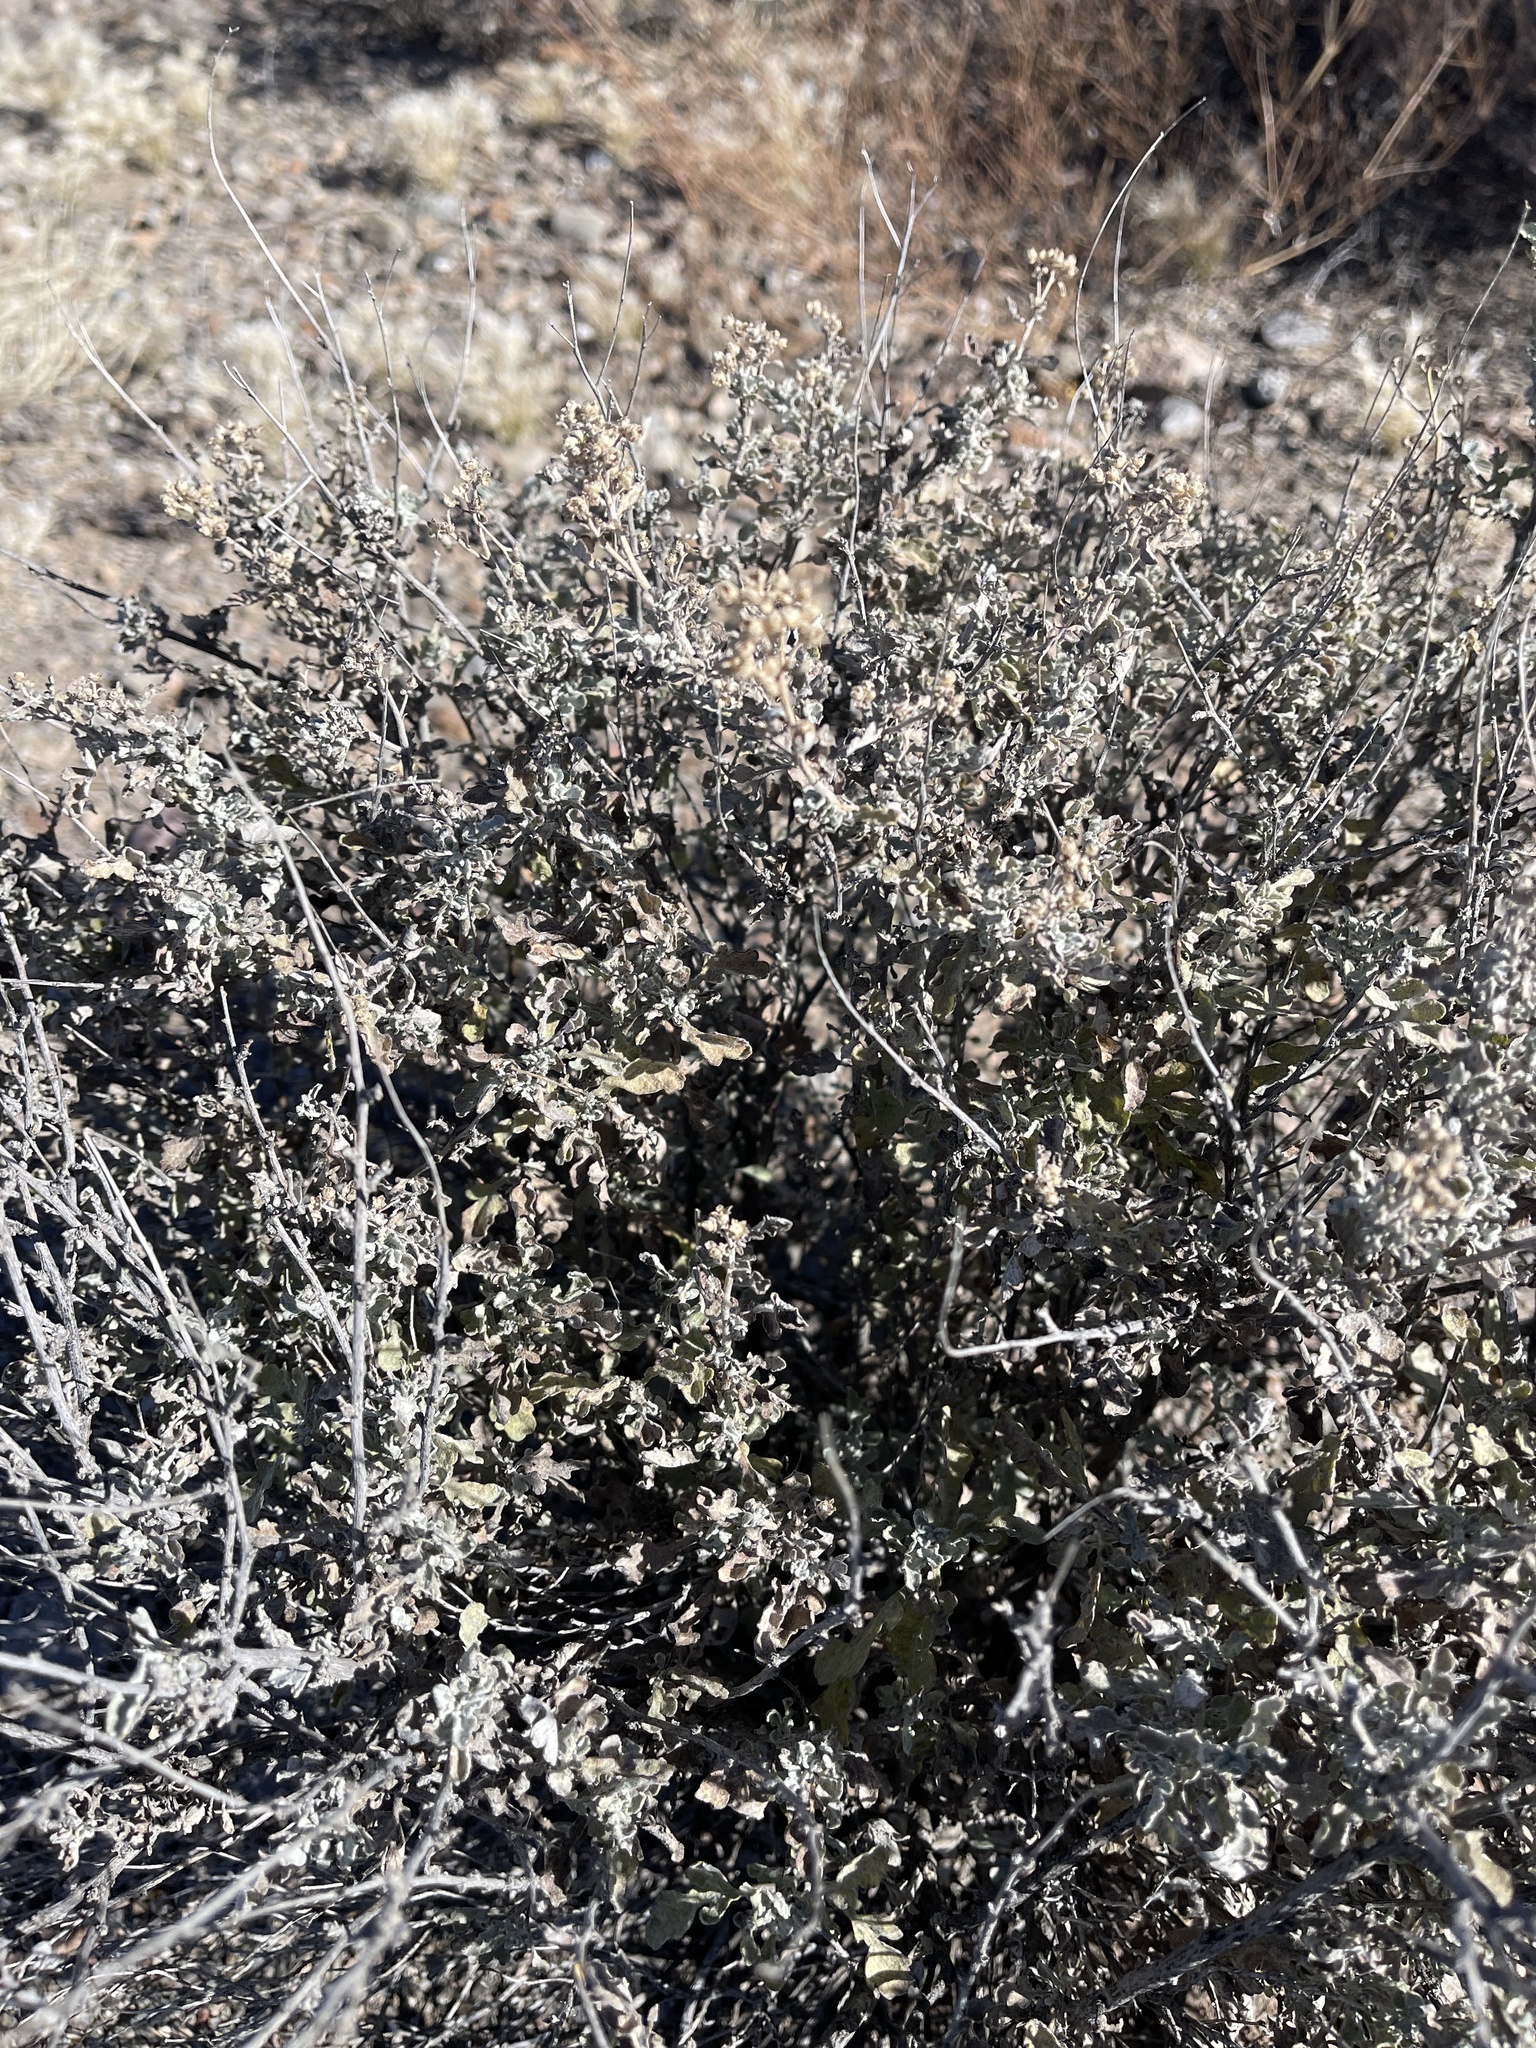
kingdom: Plantae
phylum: Tracheophyta
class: Magnoliopsida
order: Asterales
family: Asteraceae
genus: Parthenium
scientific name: Parthenium incanum
